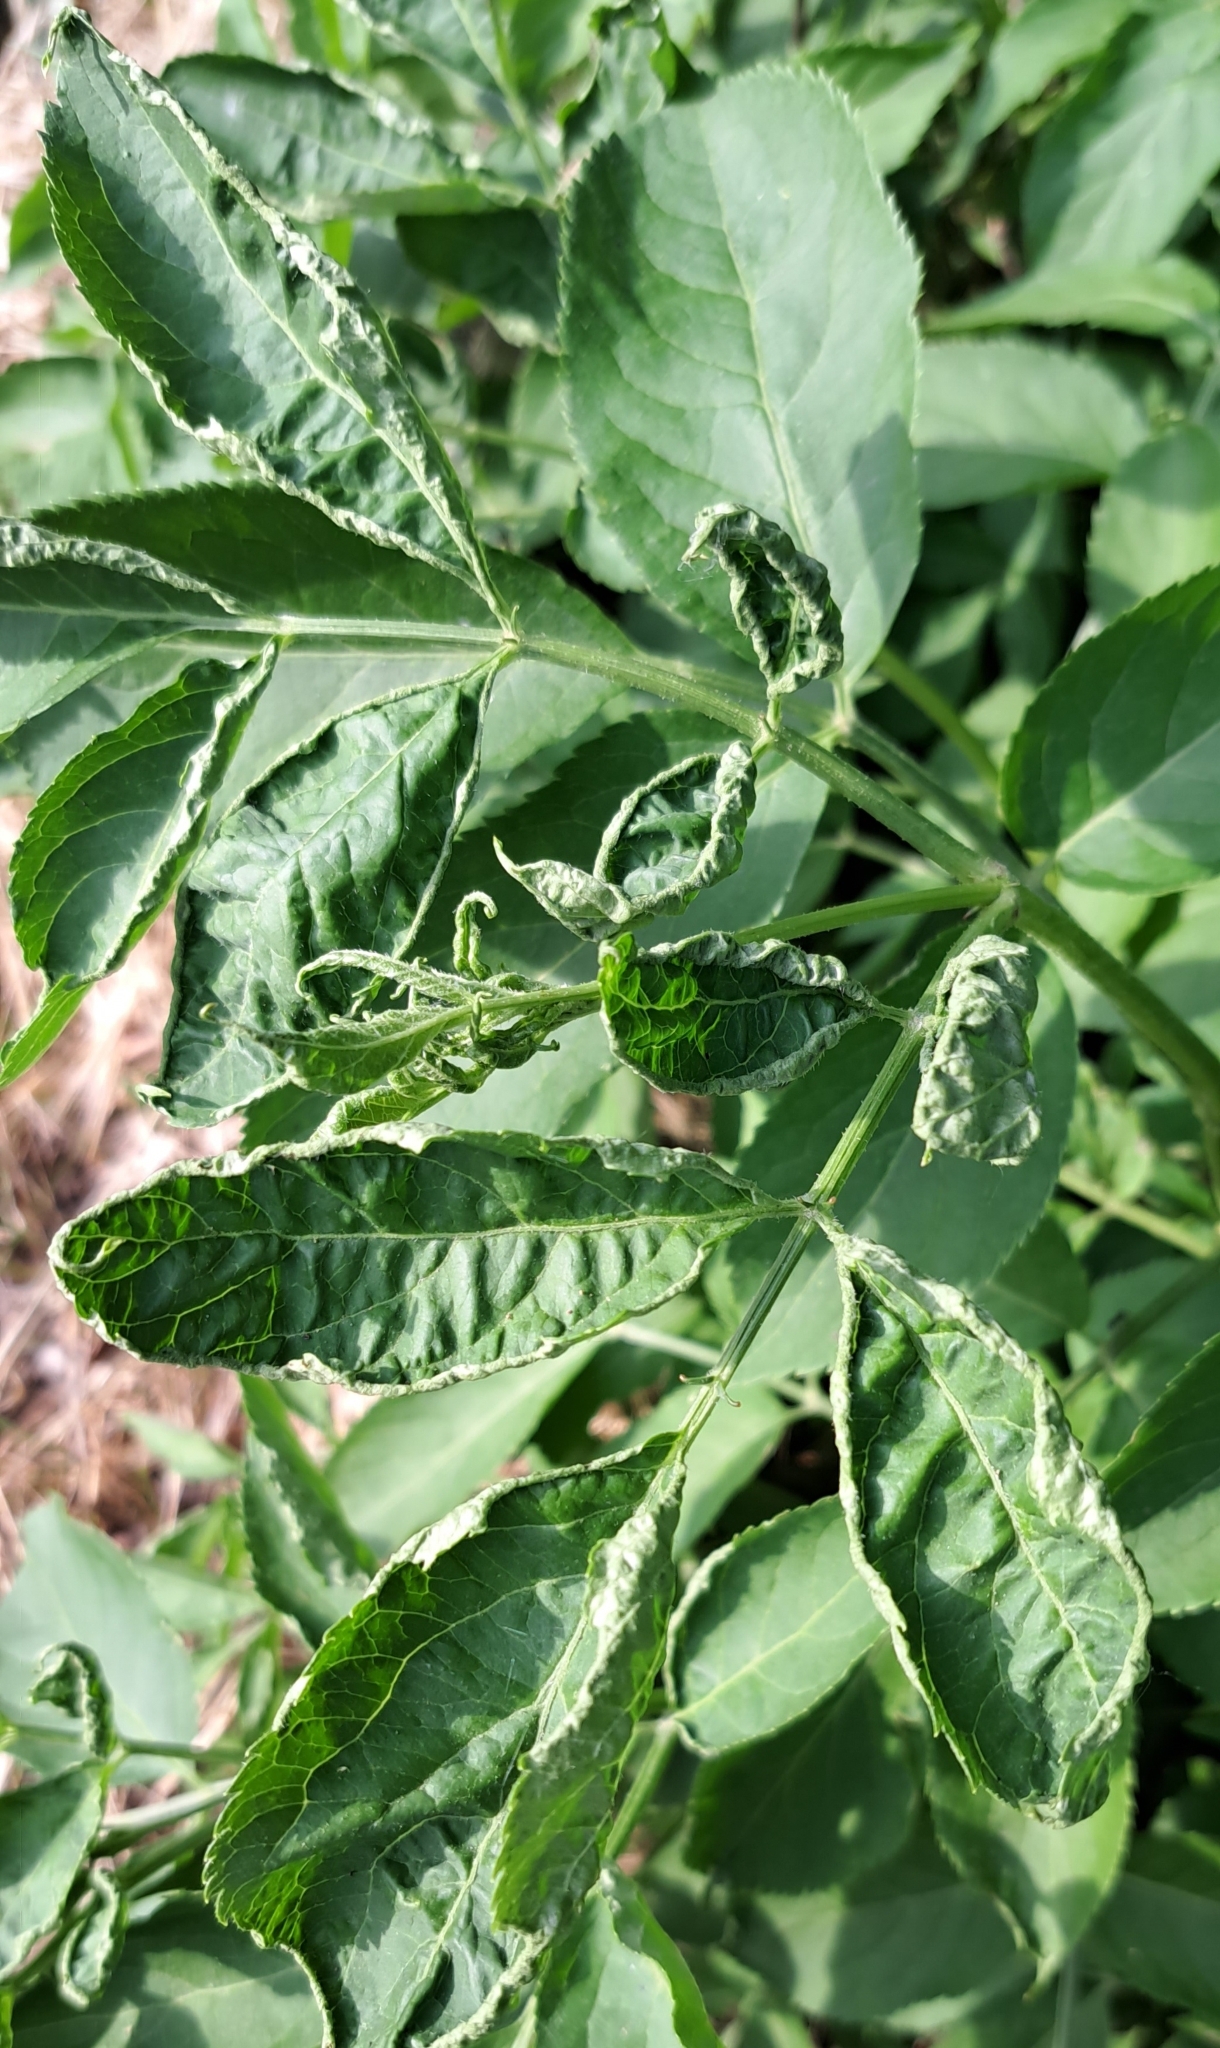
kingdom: Animalia
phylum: Arthropoda
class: Arachnida
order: Trombidiformes
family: Eriophyidae
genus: Epitrimerus
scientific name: Epitrimerus trilobus
